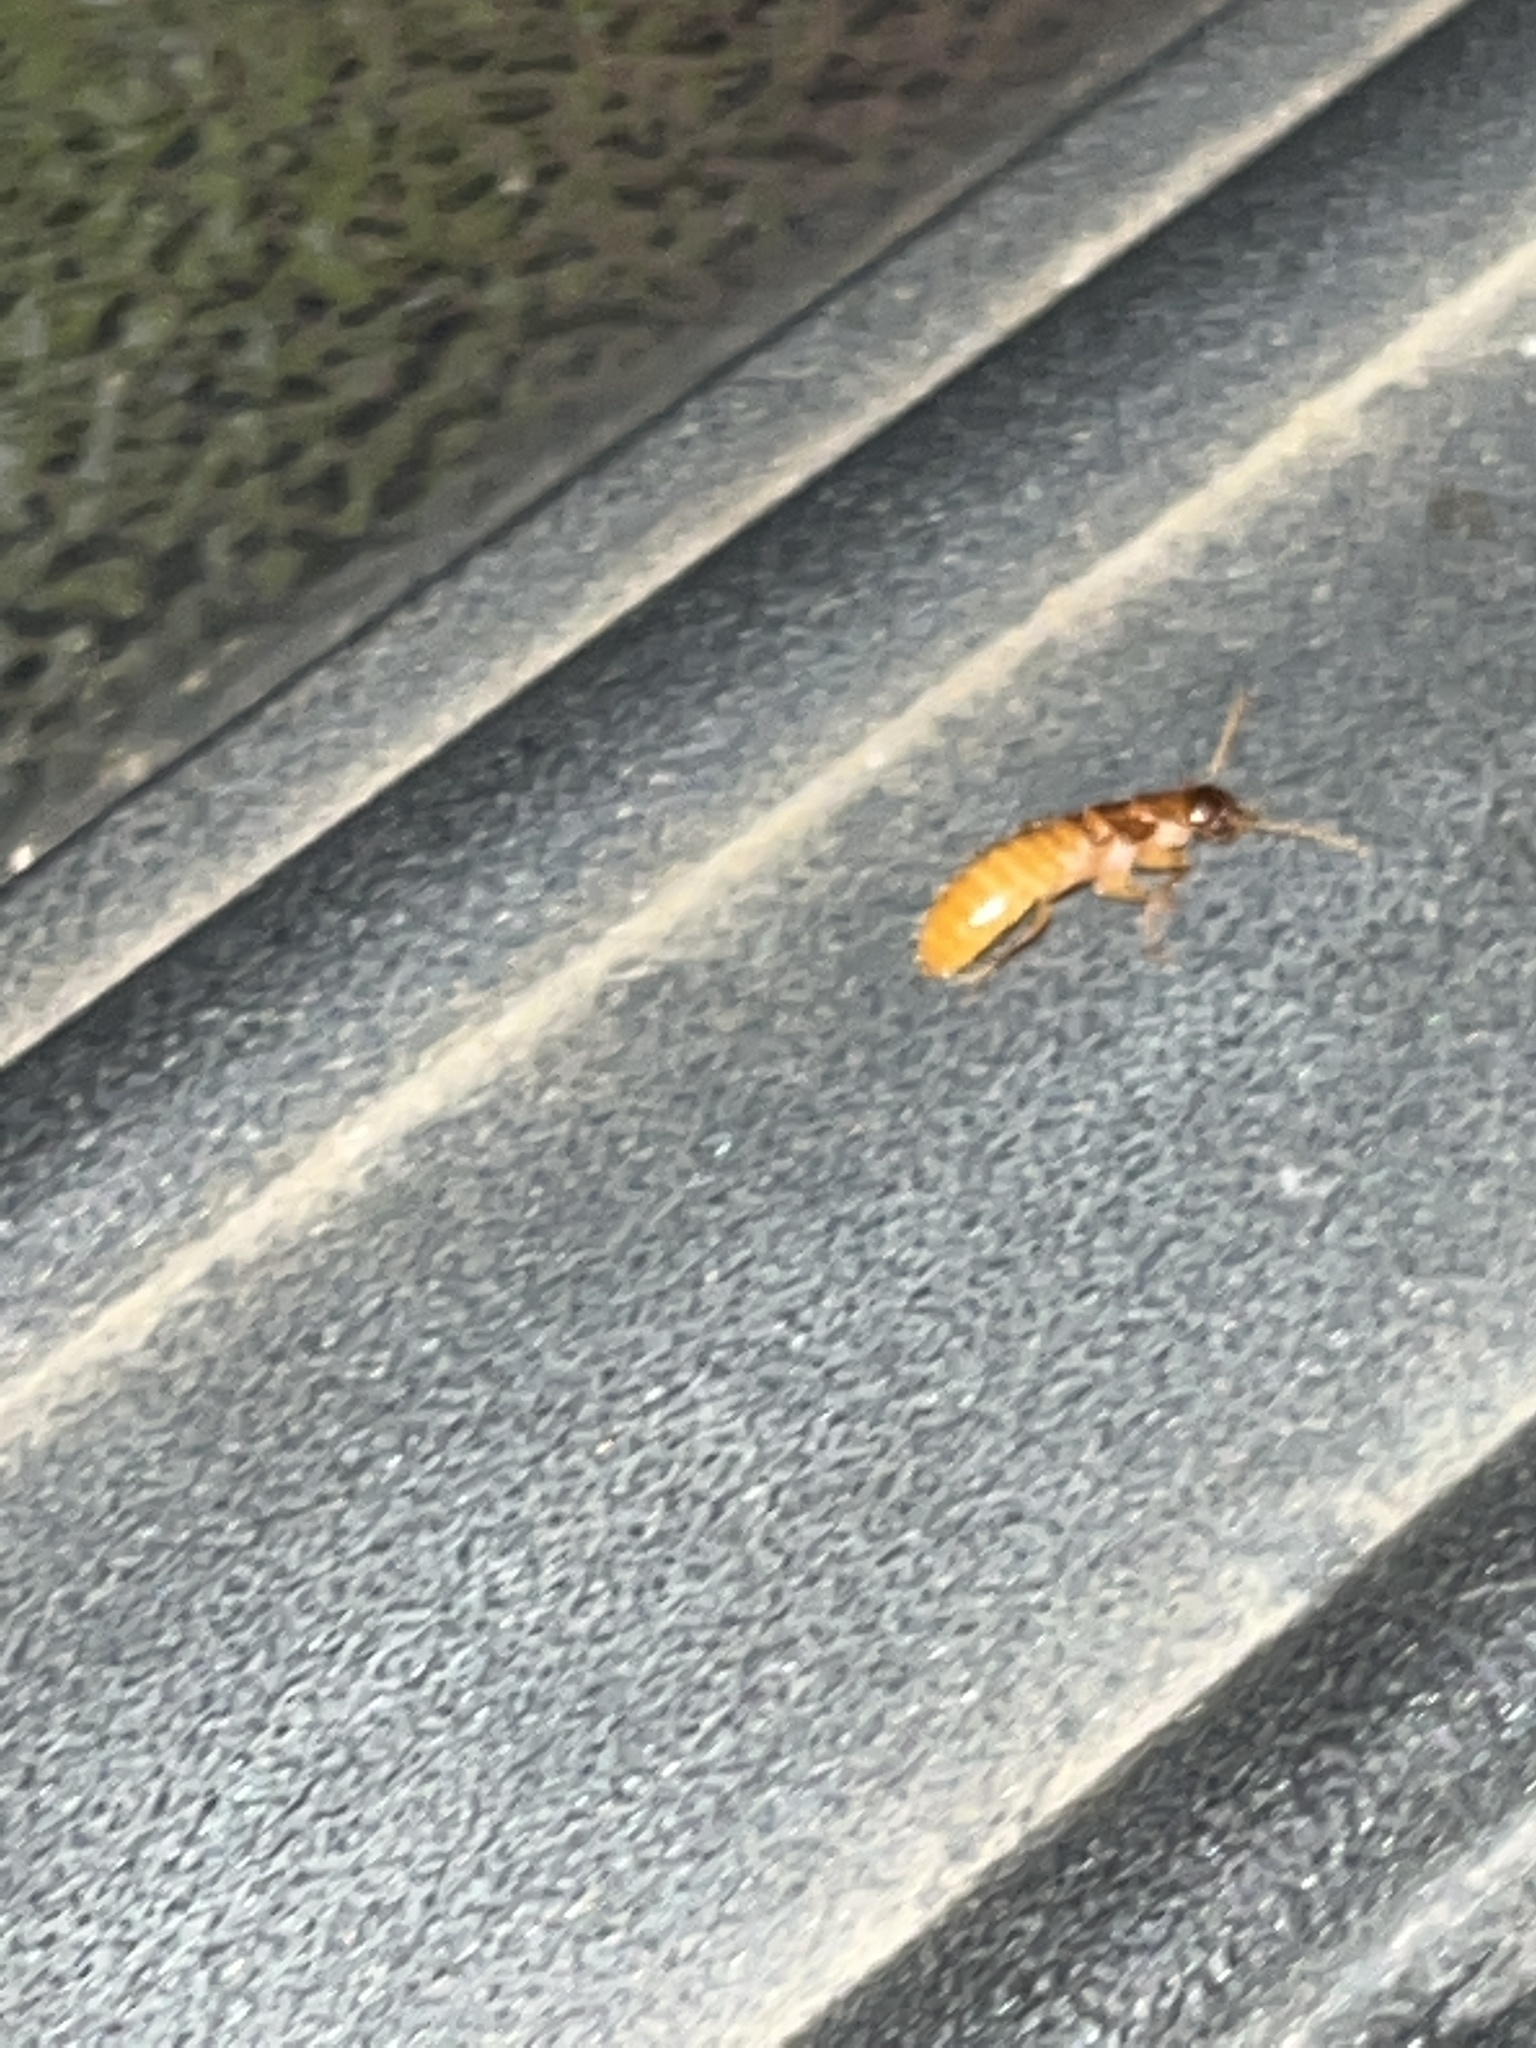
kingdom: Animalia
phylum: Arthropoda
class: Insecta
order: Blattodea
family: Rhinotermitidae
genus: Coptotermes
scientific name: Coptotermes formosanus
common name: Formosan termite
